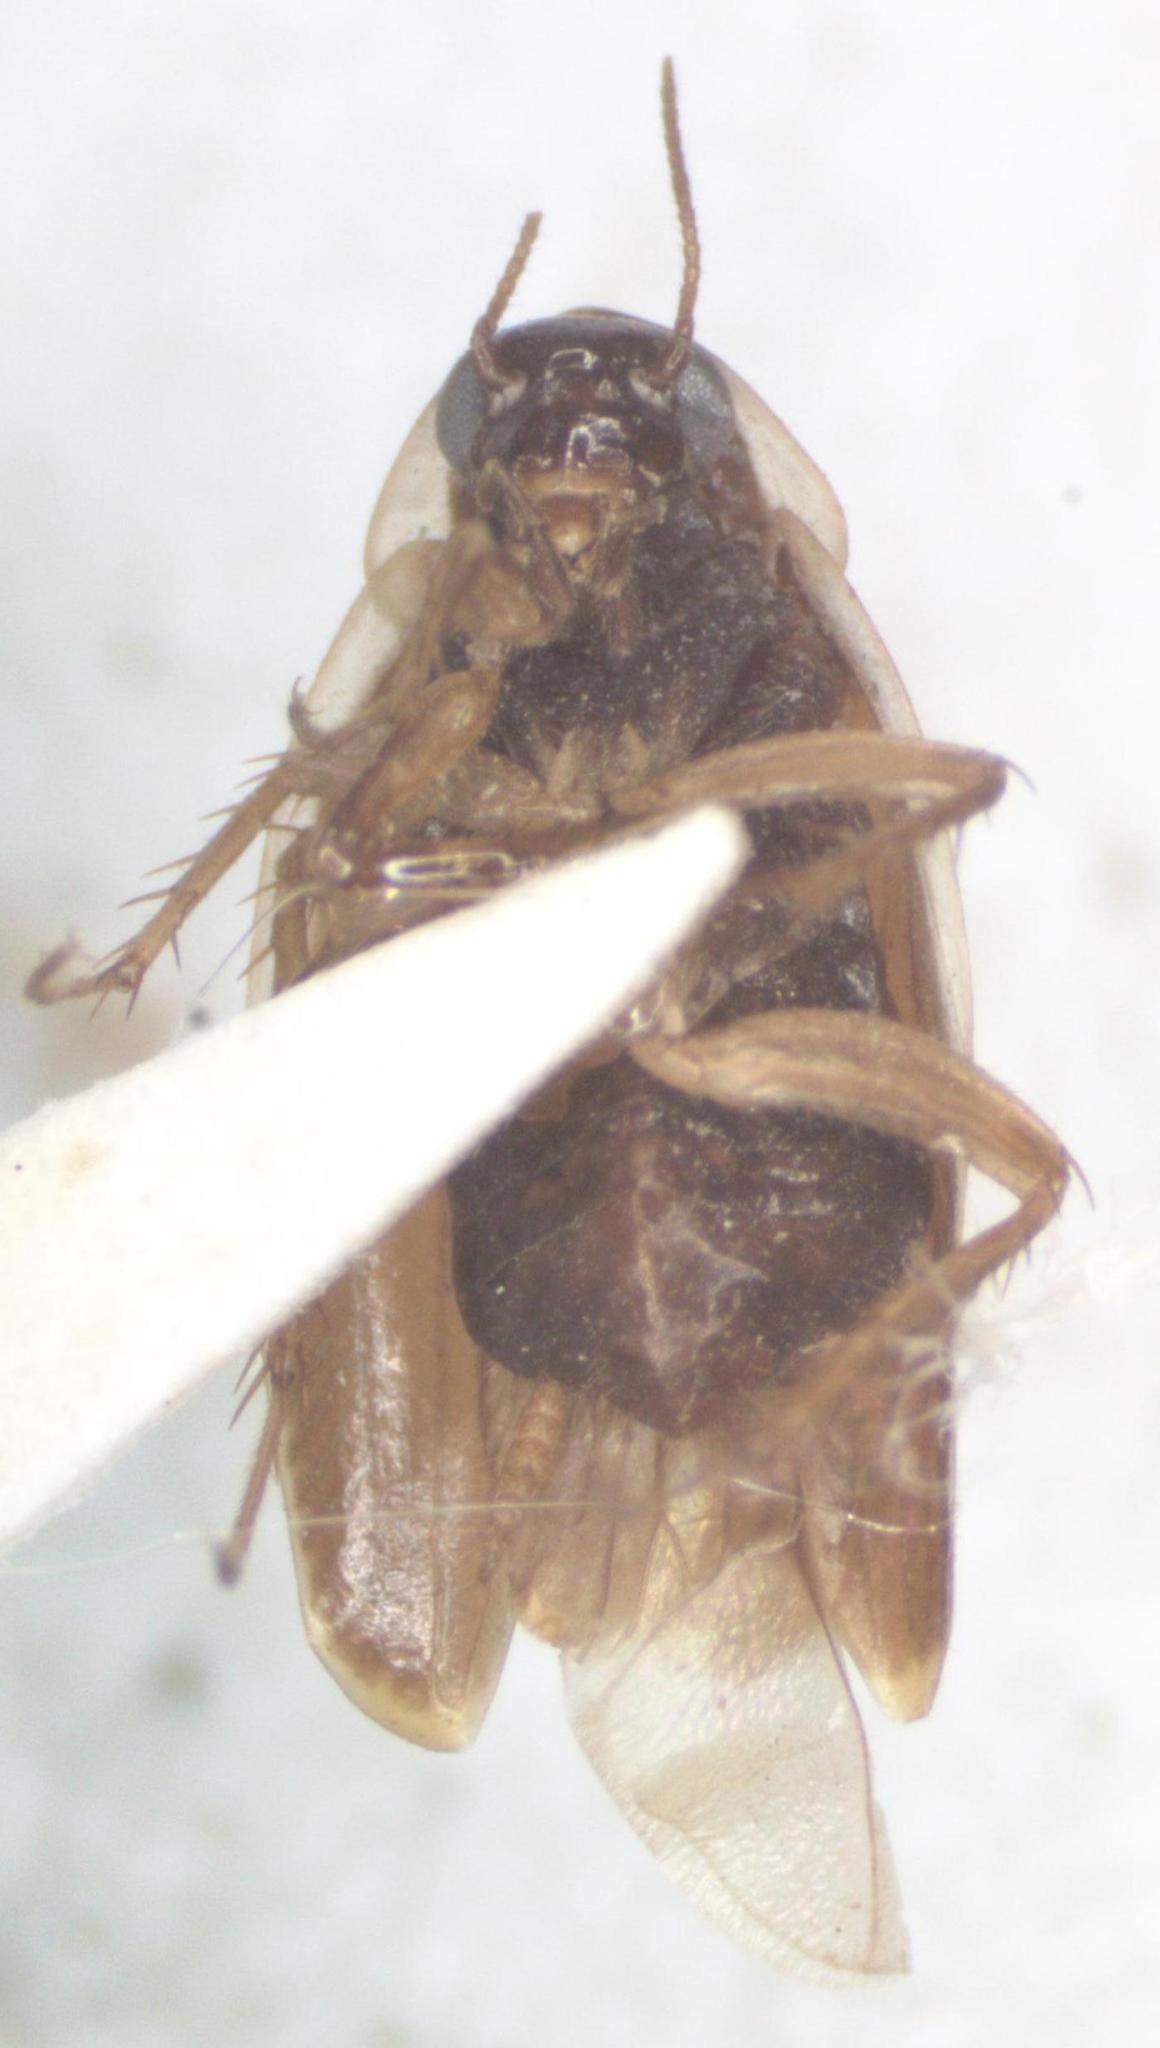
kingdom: Animalia
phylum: Arthropoda
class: Insecta
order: Blattodea
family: Anaplectidae
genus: Anaplecta
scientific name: Anaplecta fallax
